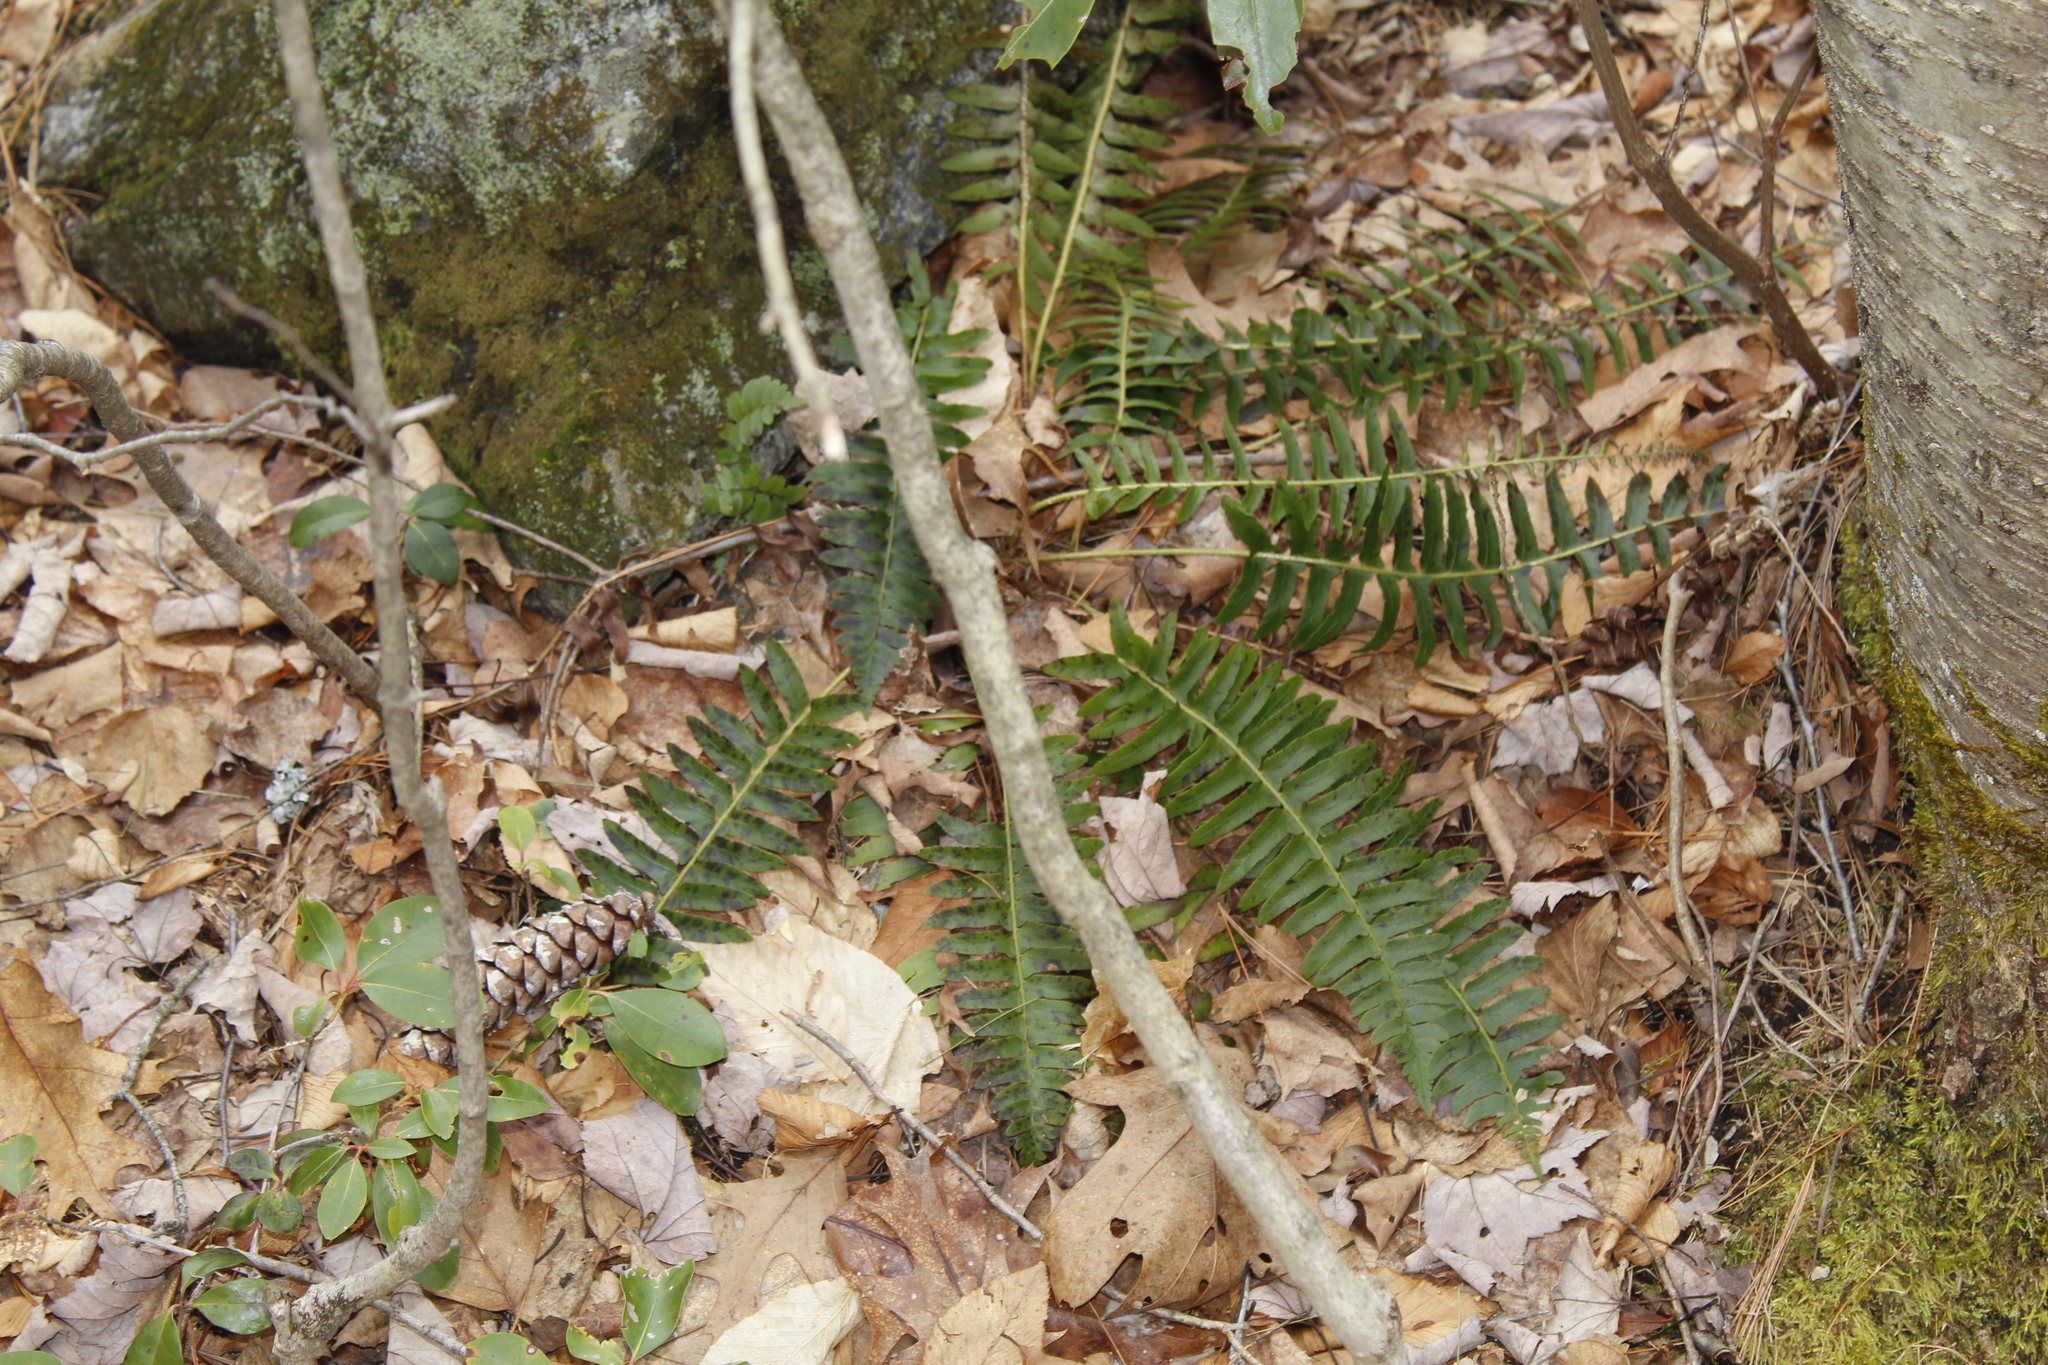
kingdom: Plantae
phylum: Tracheophyta
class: Polypodiopsida
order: Polypodiales
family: Dryopteridaceae
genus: Polystichum
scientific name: Polystichum acrostichoides
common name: Christmas fern
